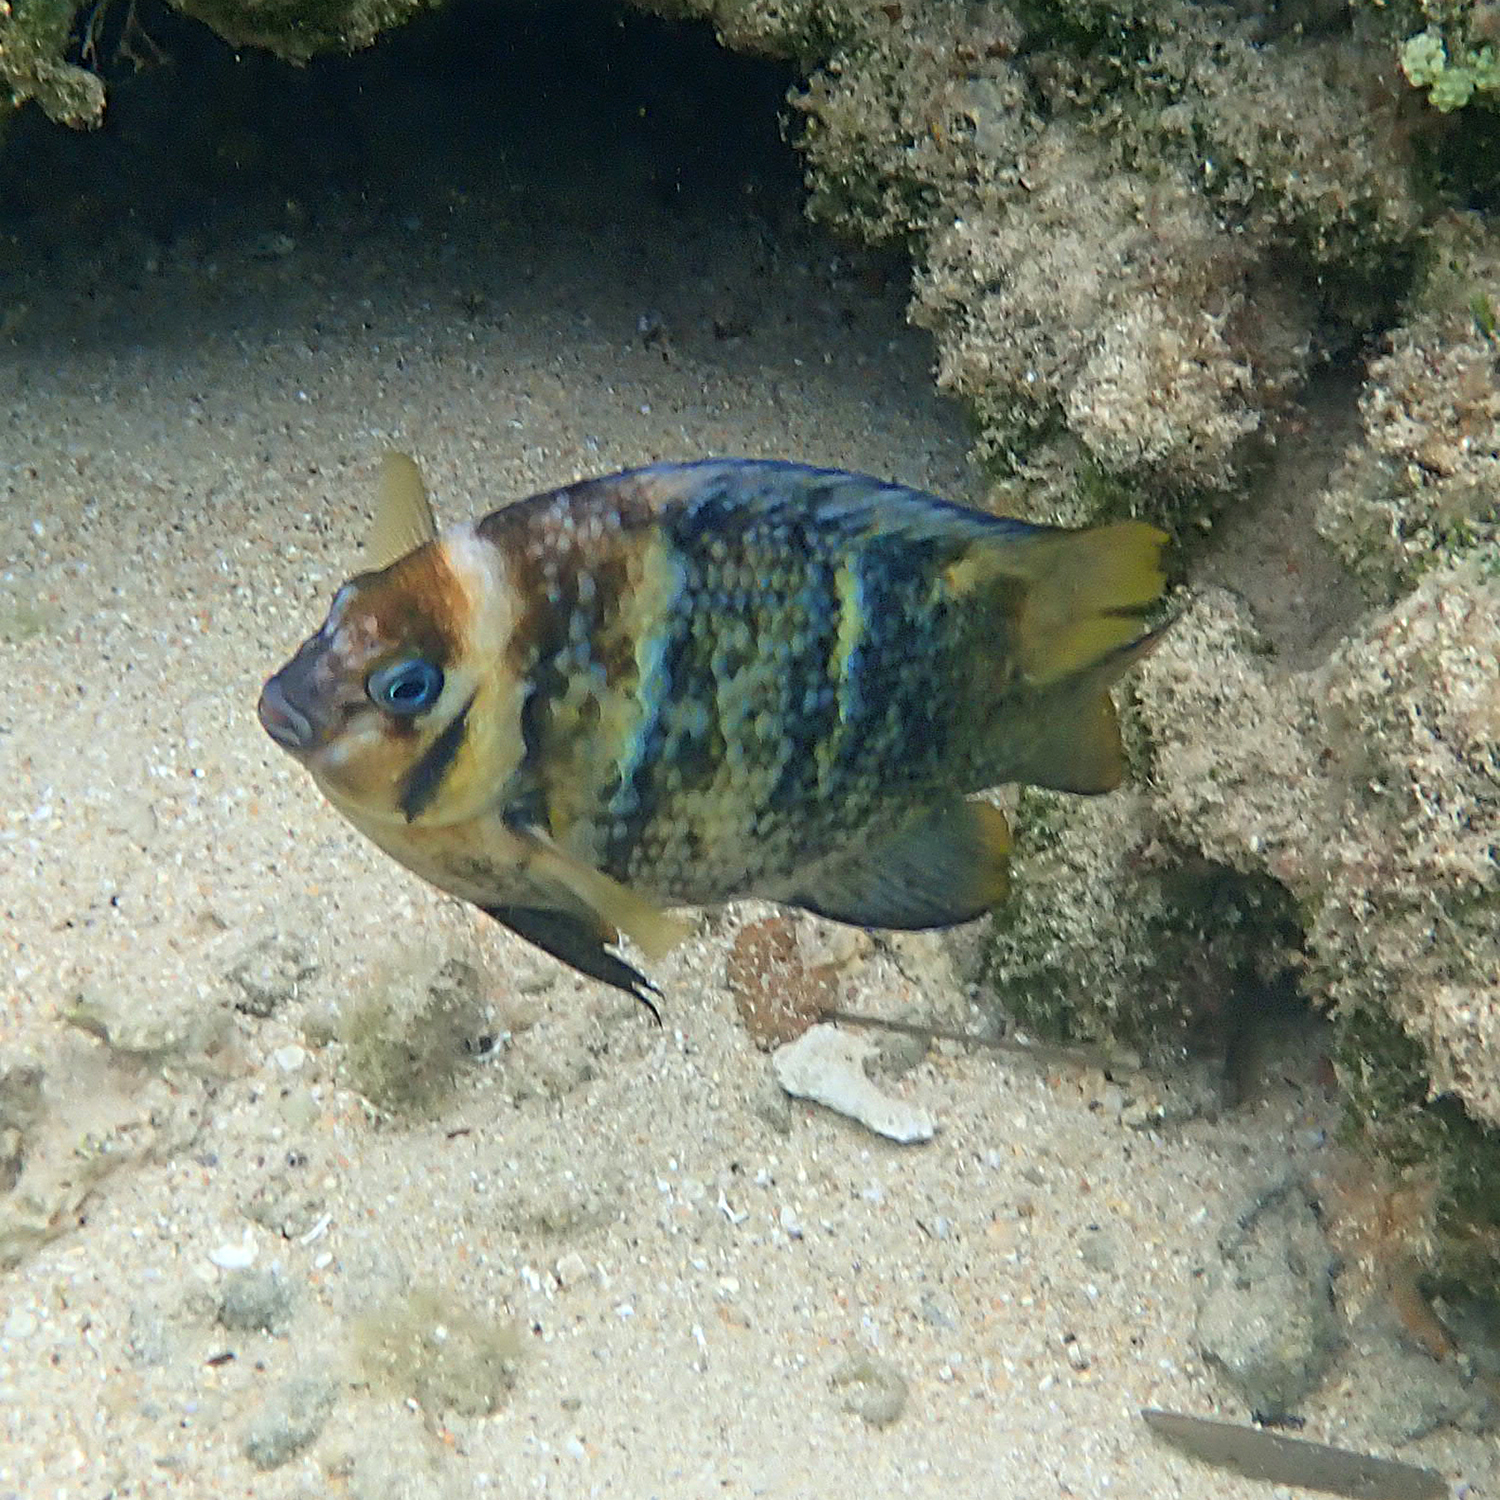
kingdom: Animalia
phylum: Chordata
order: Perciformes
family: Pomacentridae
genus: Parma
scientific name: Parma polylepis
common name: Banded parma
